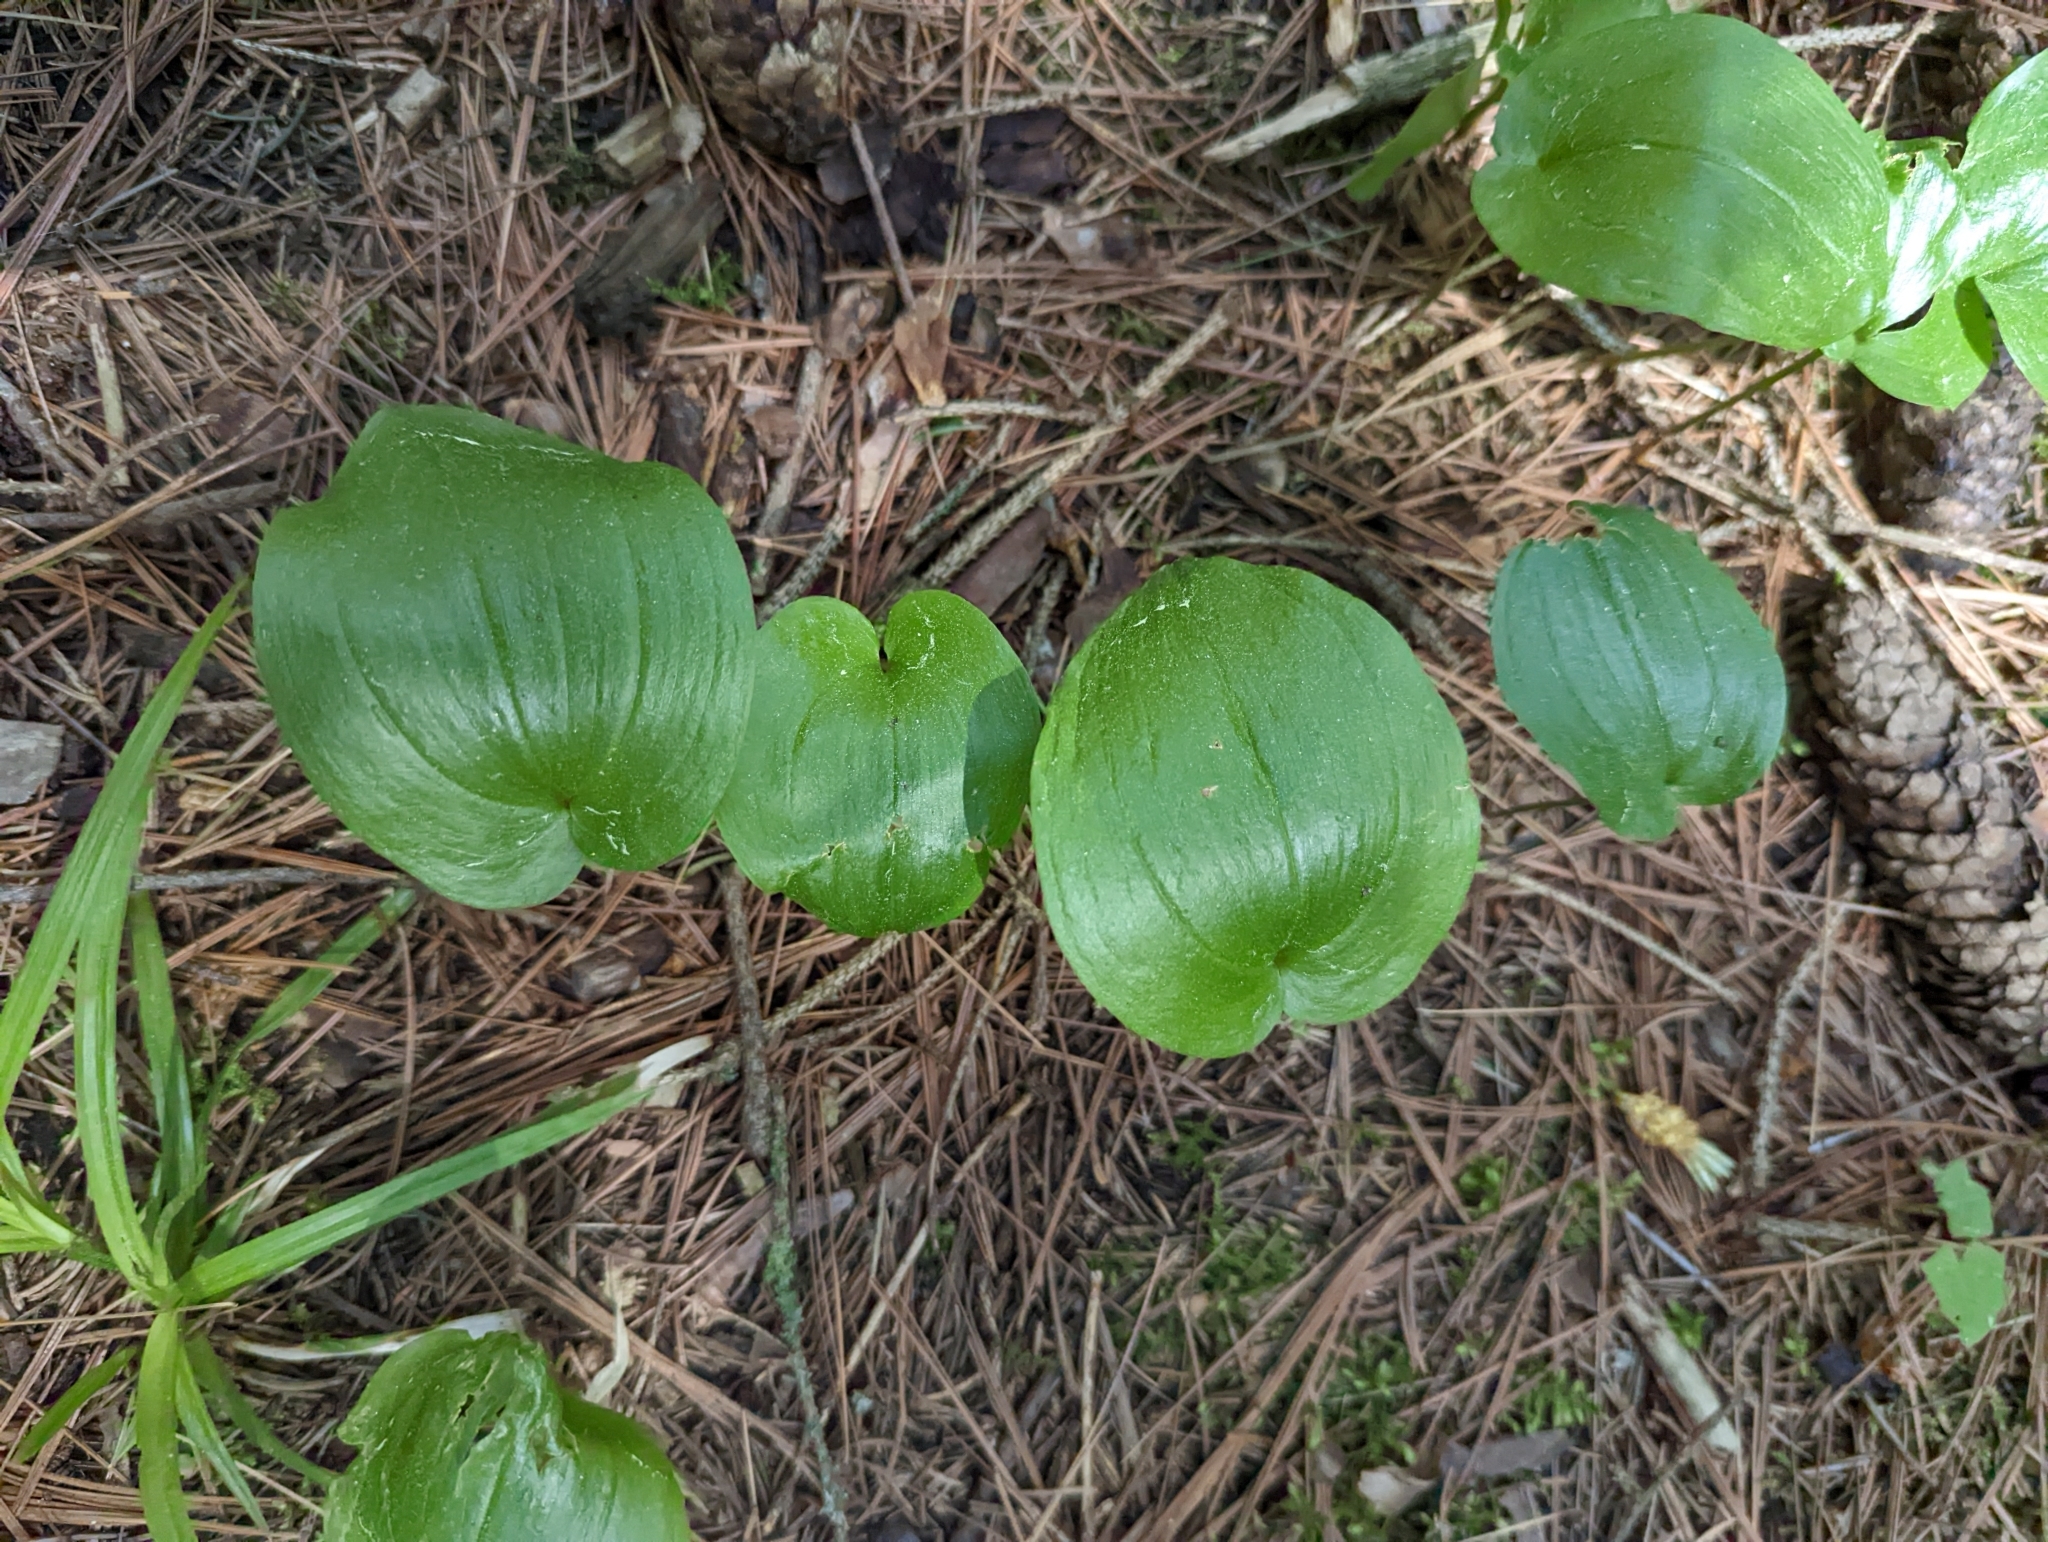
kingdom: Plantae
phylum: Tracheophyta
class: Liliopsida
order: Asparagales
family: Asparagaceae
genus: Maianthemum
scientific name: Maianthemum canadense
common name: False lily-of-the-valley
